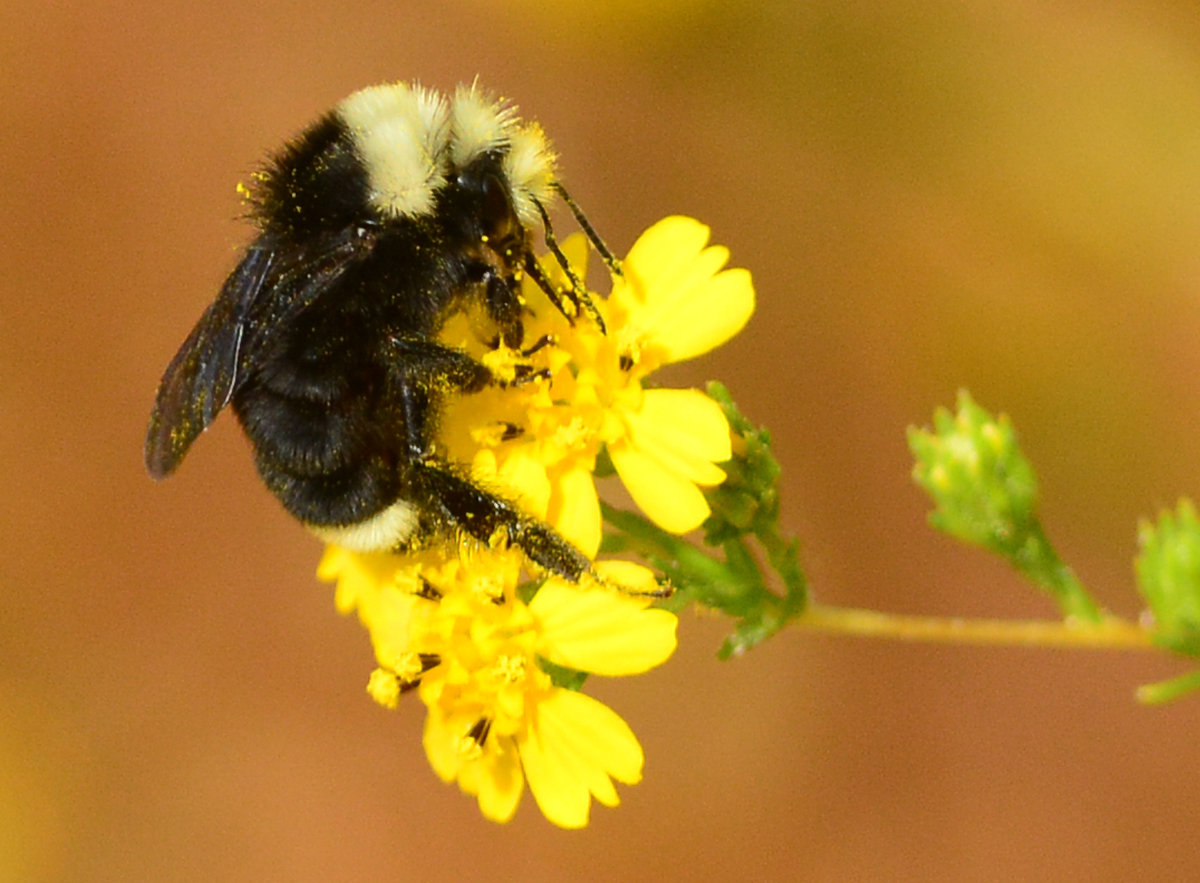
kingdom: Animalia
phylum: Arthropoda
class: Insecta
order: Hymenoptera
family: Apidae
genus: Bombus
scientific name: Bombus vosnesenskii
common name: Vosnesensky bumble bee
